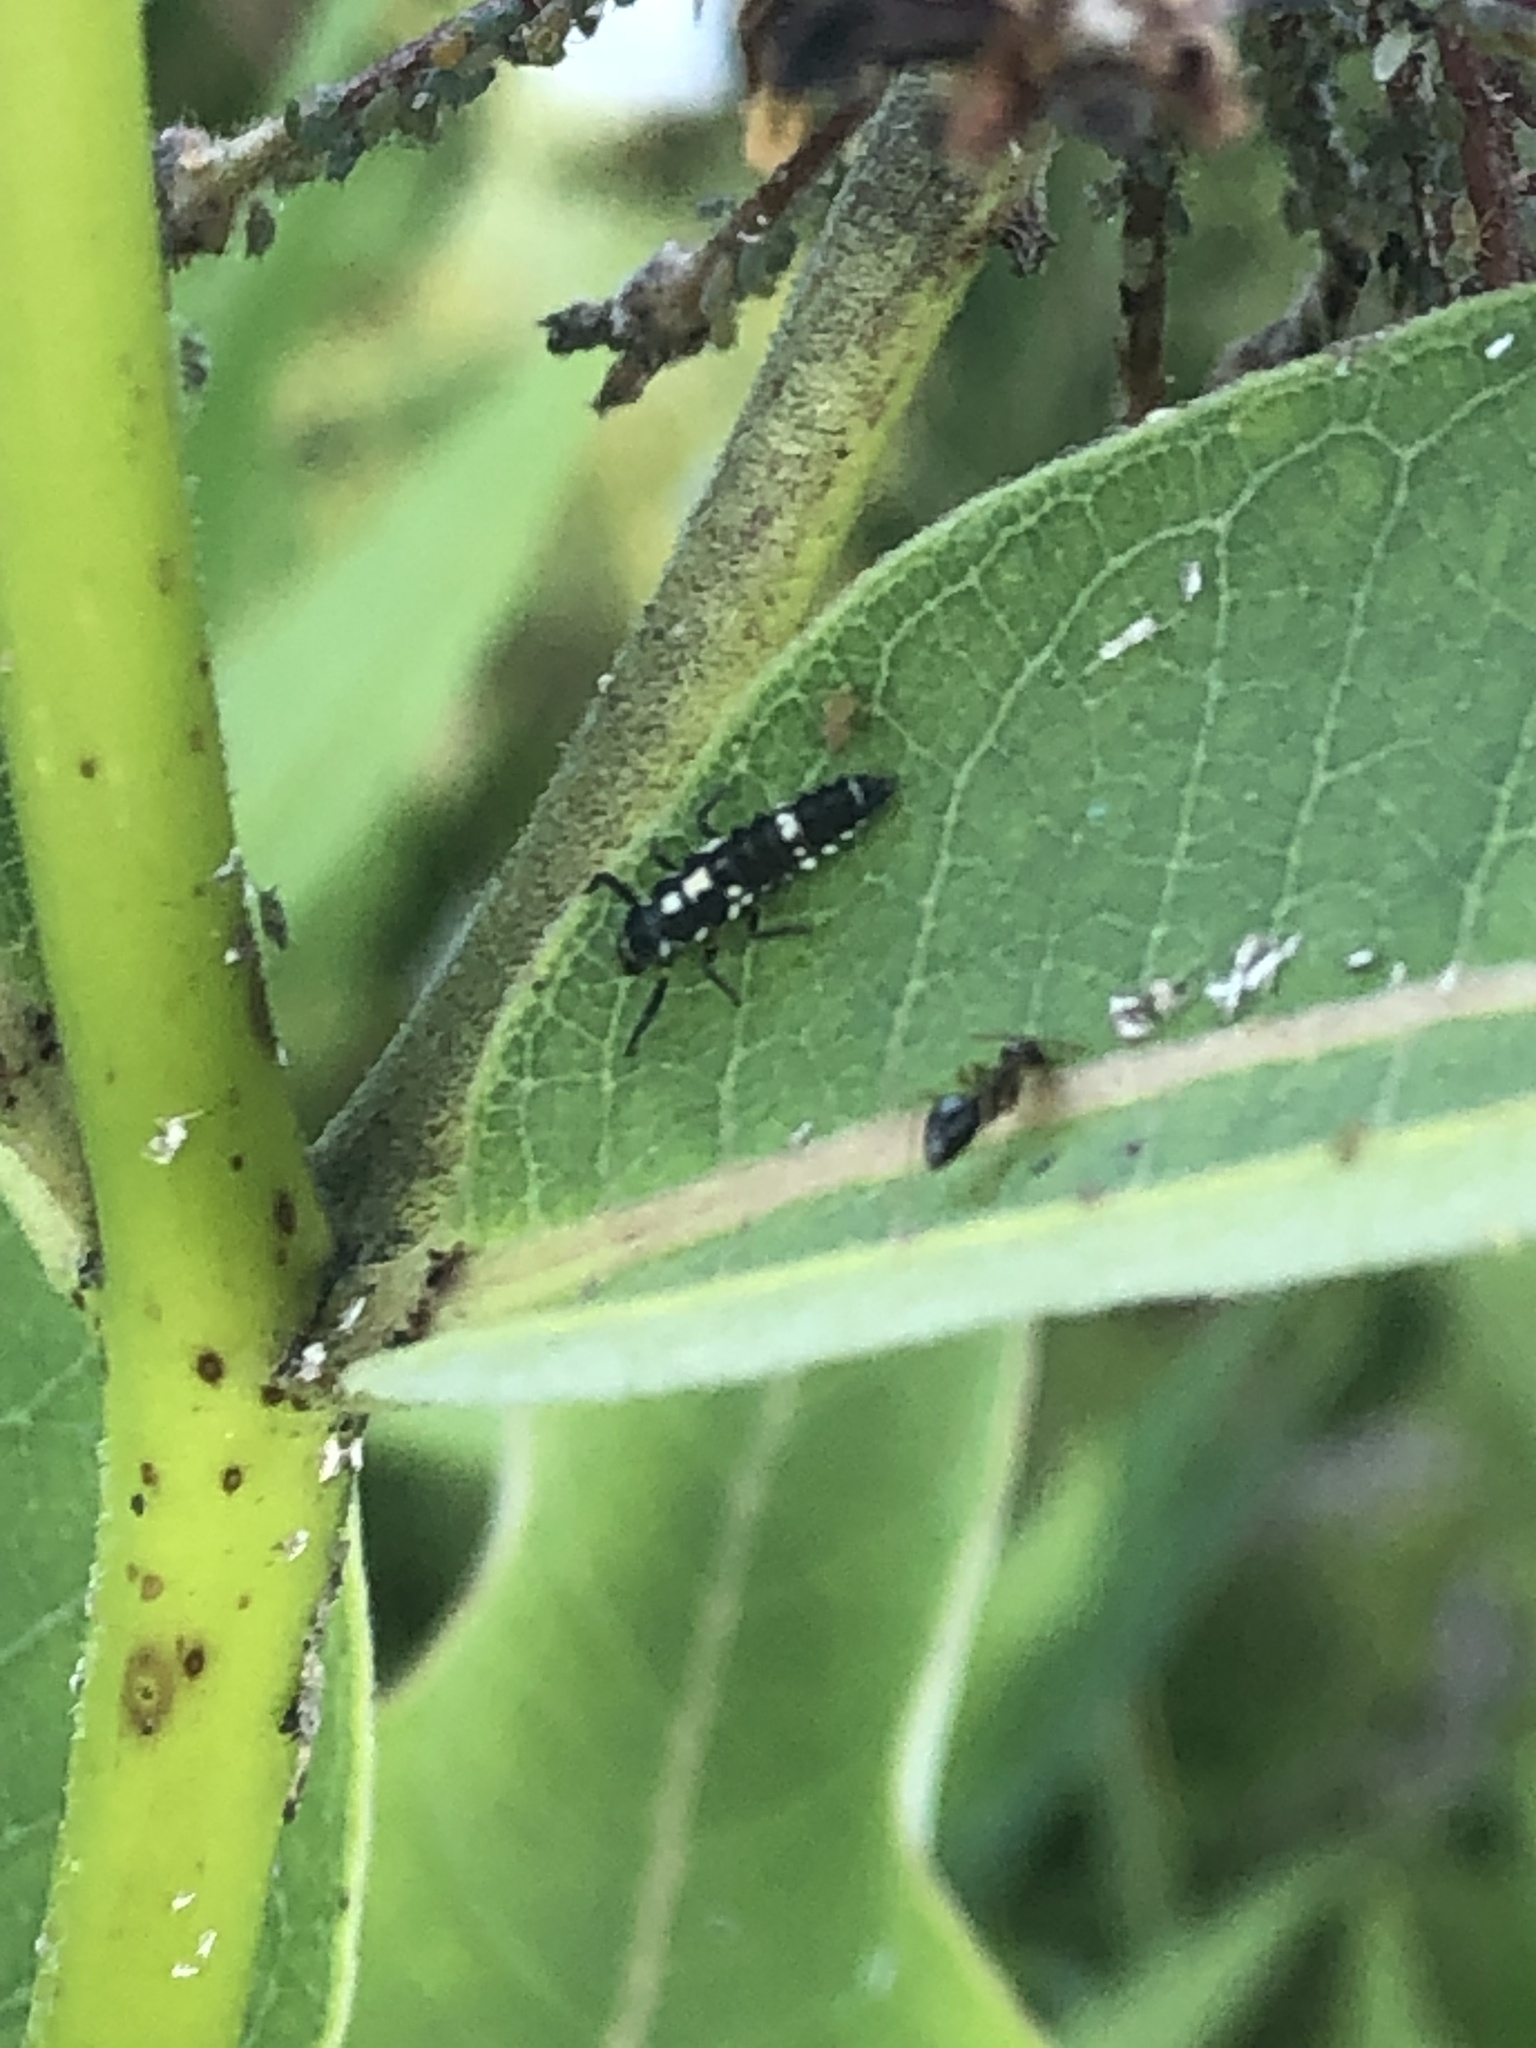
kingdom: Animalia
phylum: Arthropoda
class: Insecta
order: Coleoptera
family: Coccinellidae
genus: Propylaea
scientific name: Propylaea quatuordecimpunctata
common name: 14-spotted ladybird beetle
